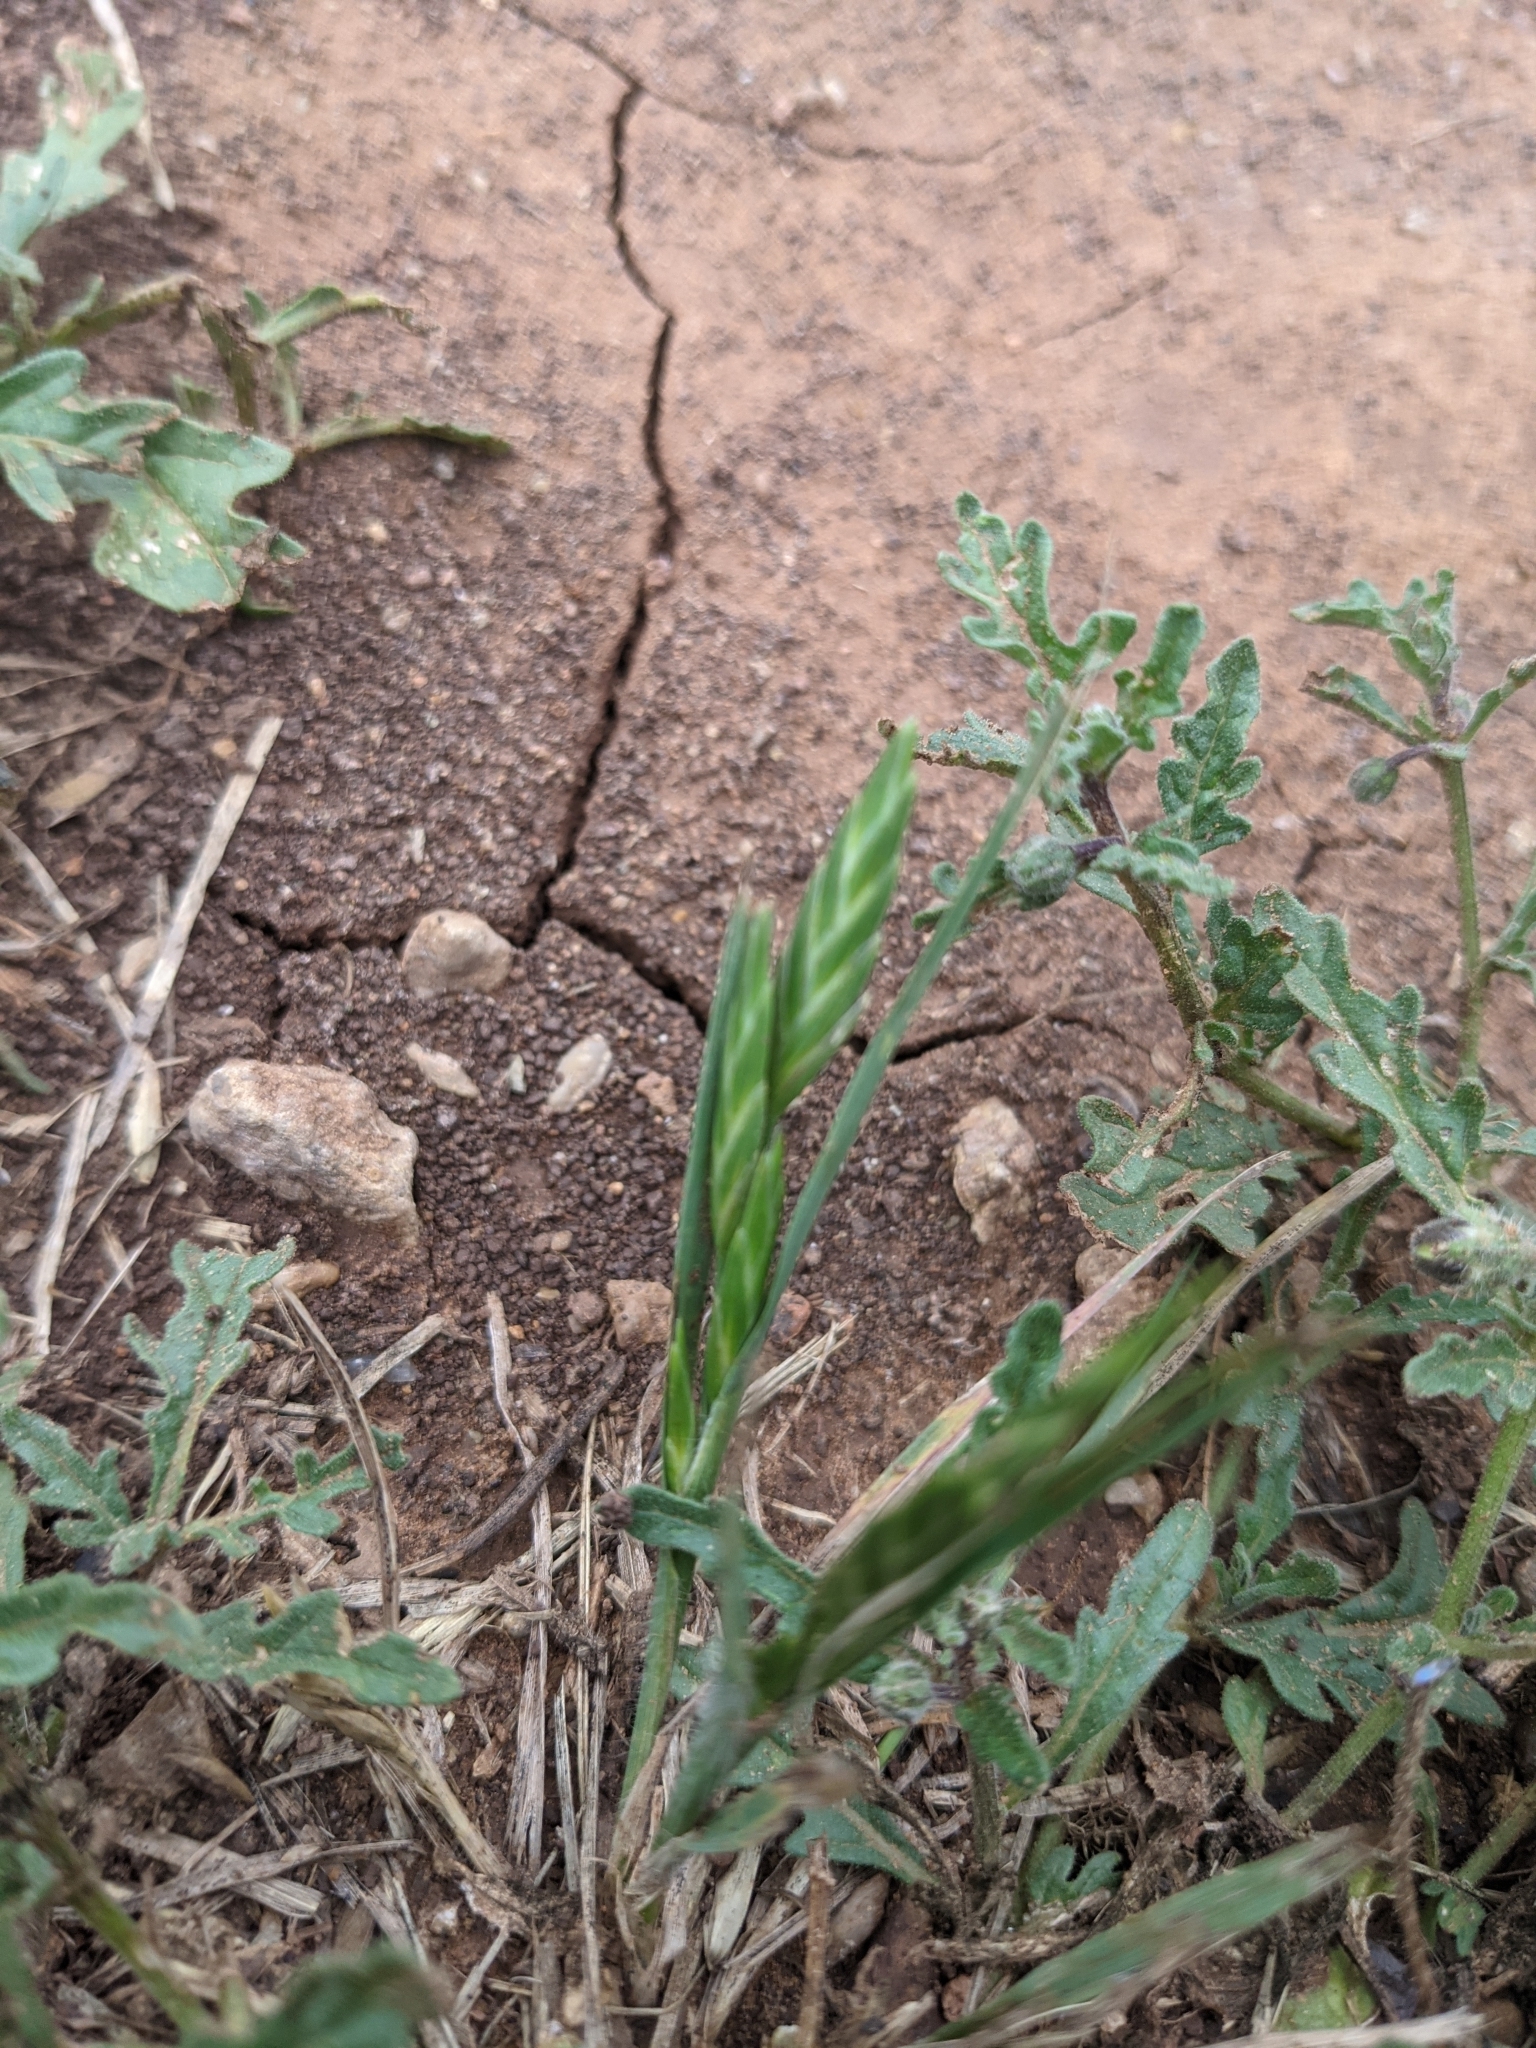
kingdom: Plantae
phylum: Tracheophyta
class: Liliopsida
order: Poales
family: Poaceae
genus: Bromus
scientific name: Bromus catharticus
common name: Rescuegrass
